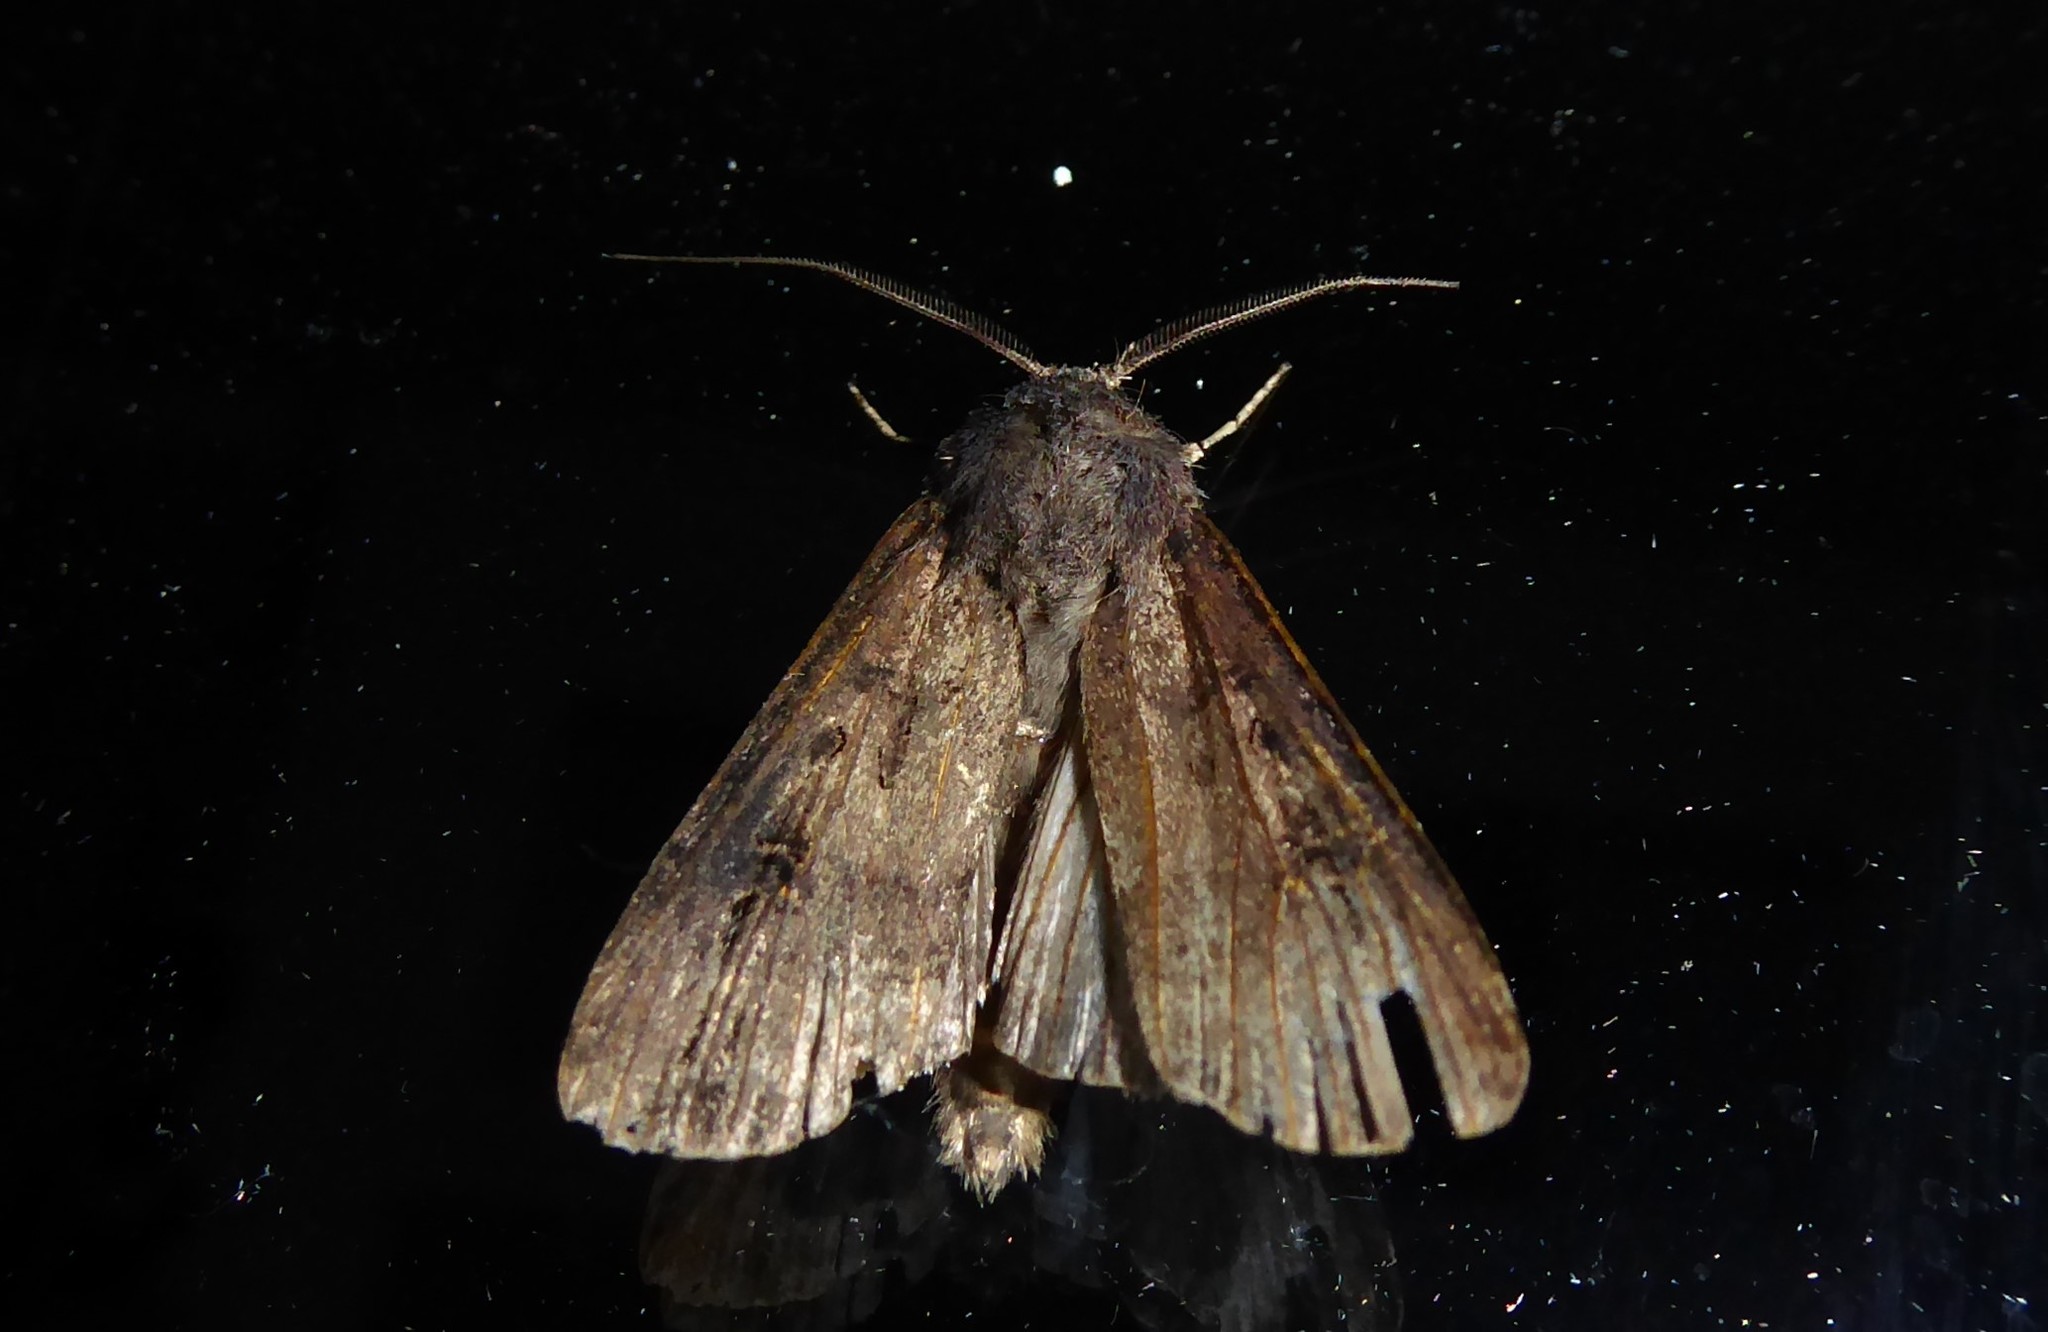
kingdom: Animalia
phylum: Arthropoda
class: Insecta
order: Lepidoptera
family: Noctuidae
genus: Agrotis
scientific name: Agrotis ipsilon
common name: Dark sword-grass
